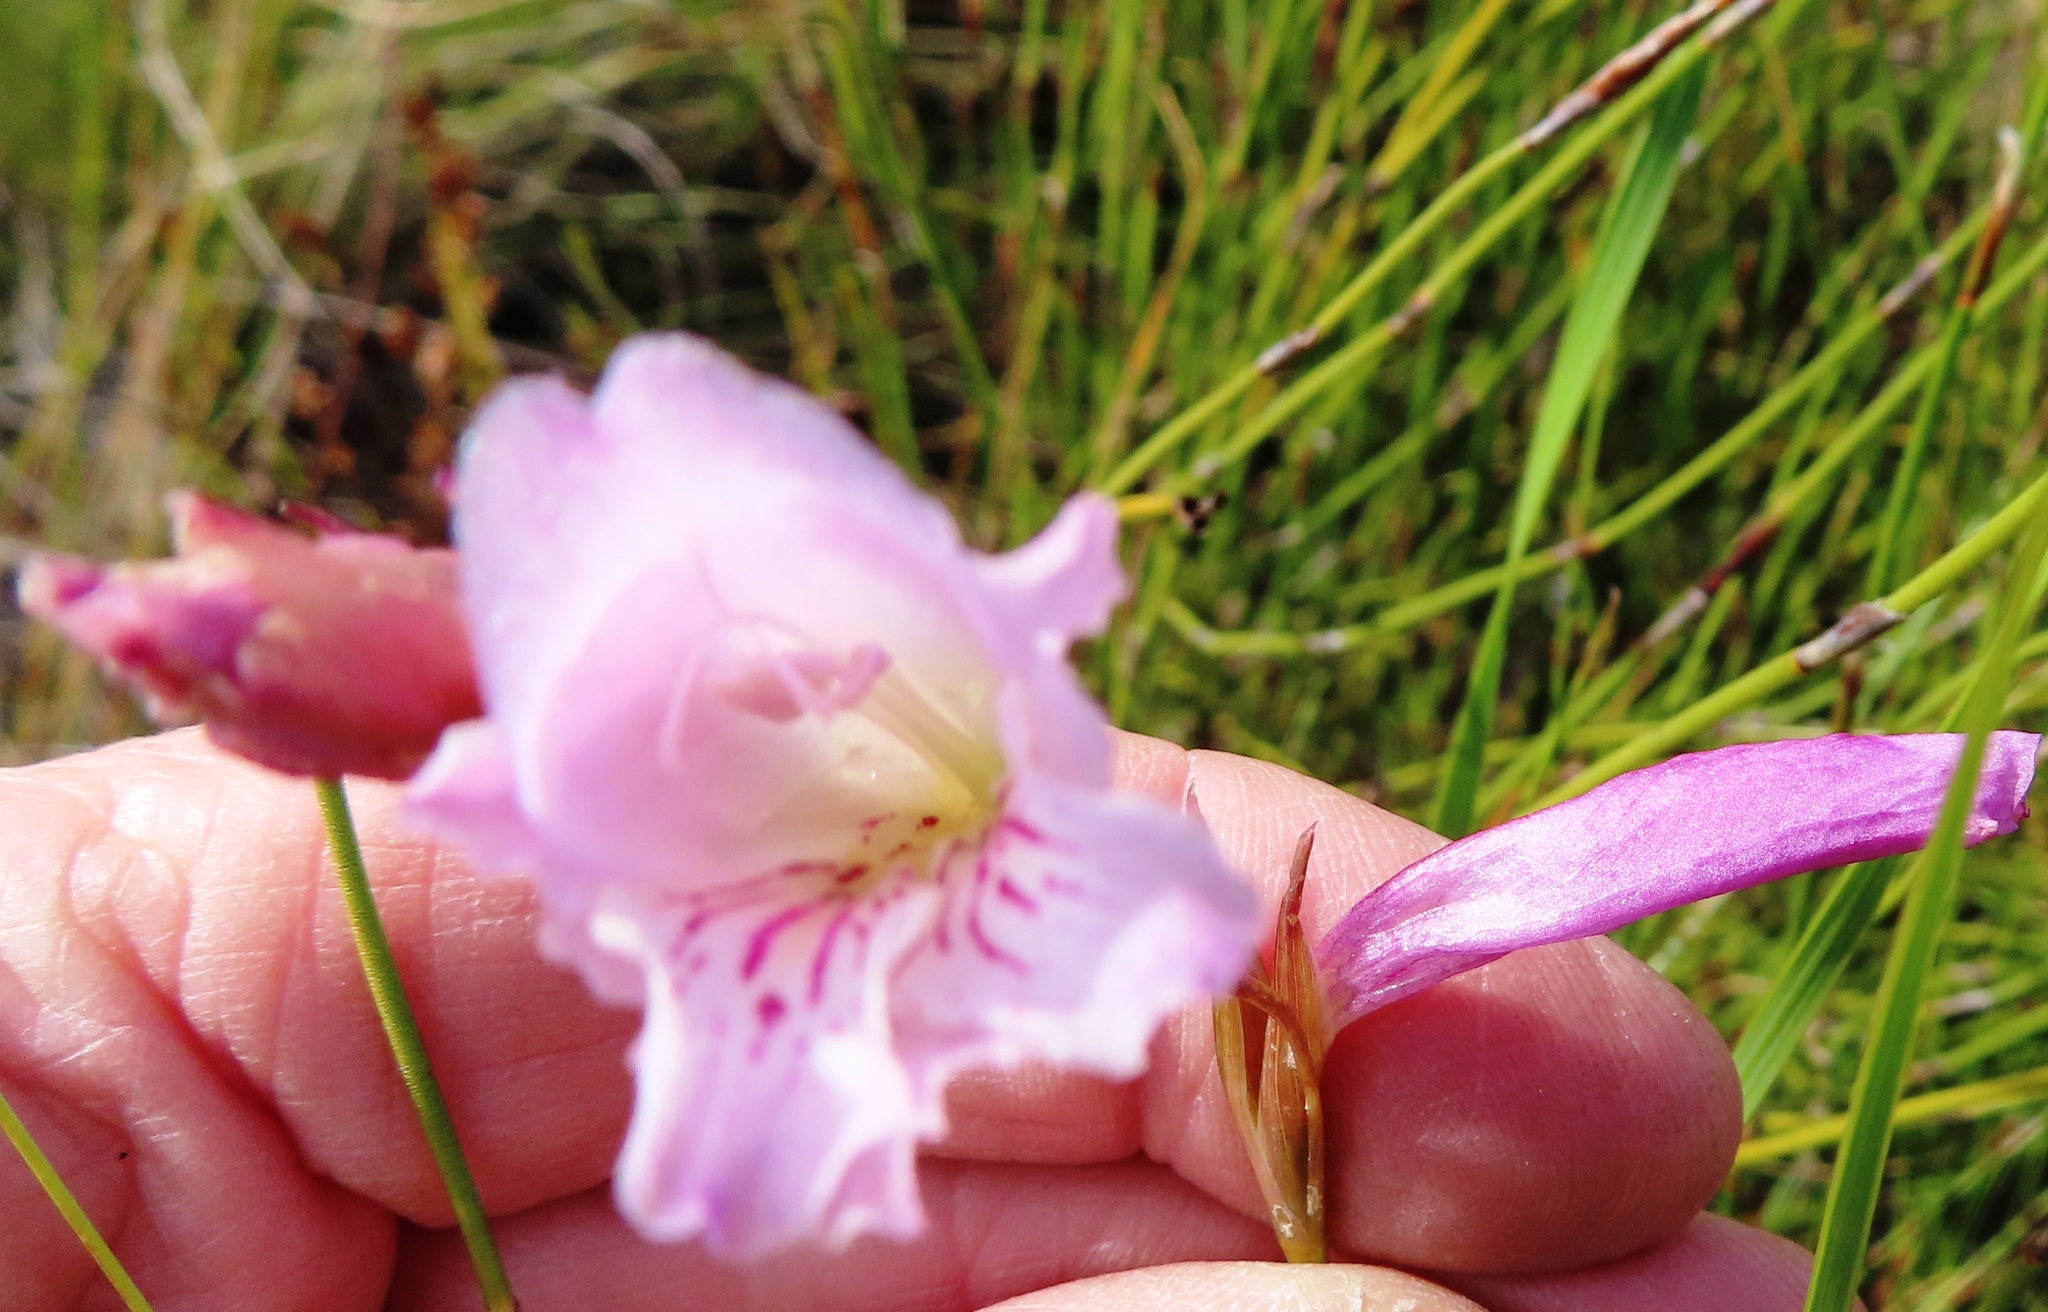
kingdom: Plantae
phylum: Tracheophyta
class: Liliopsida
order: Asparagales
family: Iridaceae
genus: Gladiolus
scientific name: Gladiolus hirsutus
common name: Small pink afrikaner
